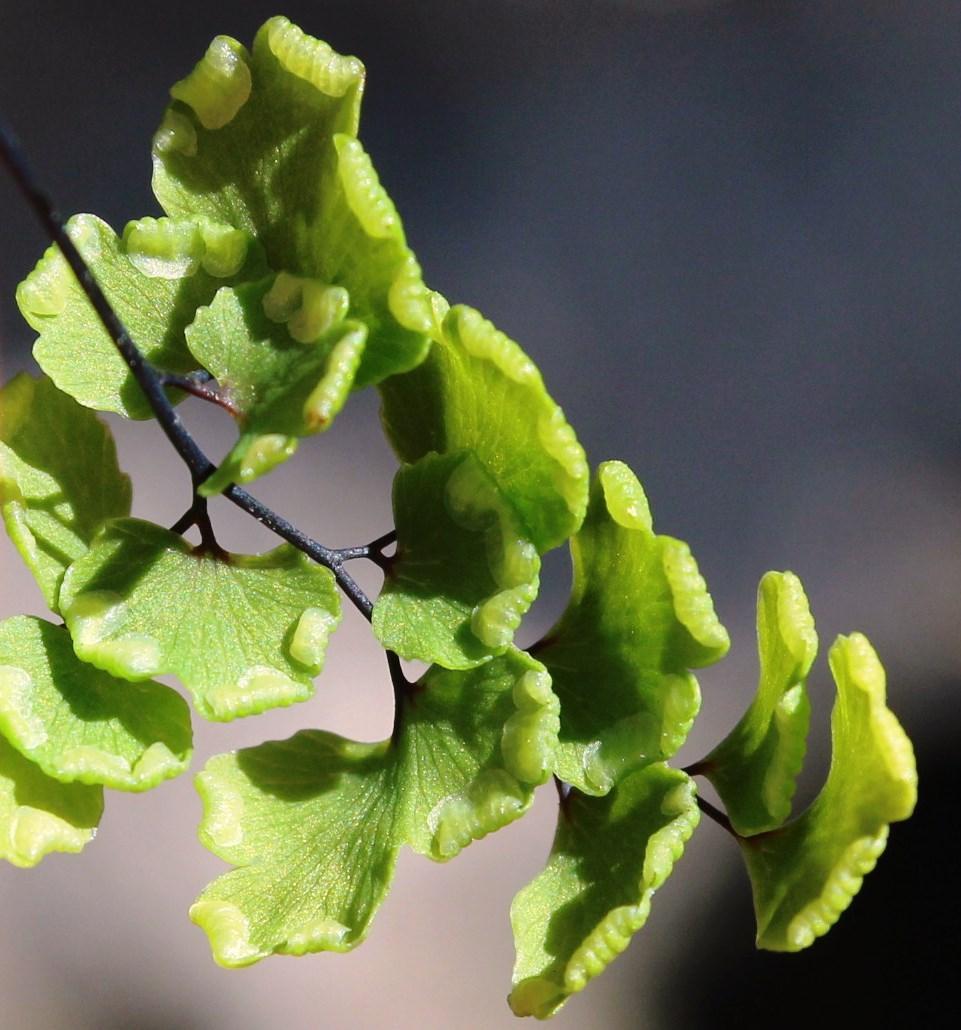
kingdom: Plantae
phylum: Tracheophyta
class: Polypodiopsida
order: Polypodiales
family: Pteridaceae
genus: Adiantum
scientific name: Adiantum capillus-veneris
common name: Maidenhair fern
